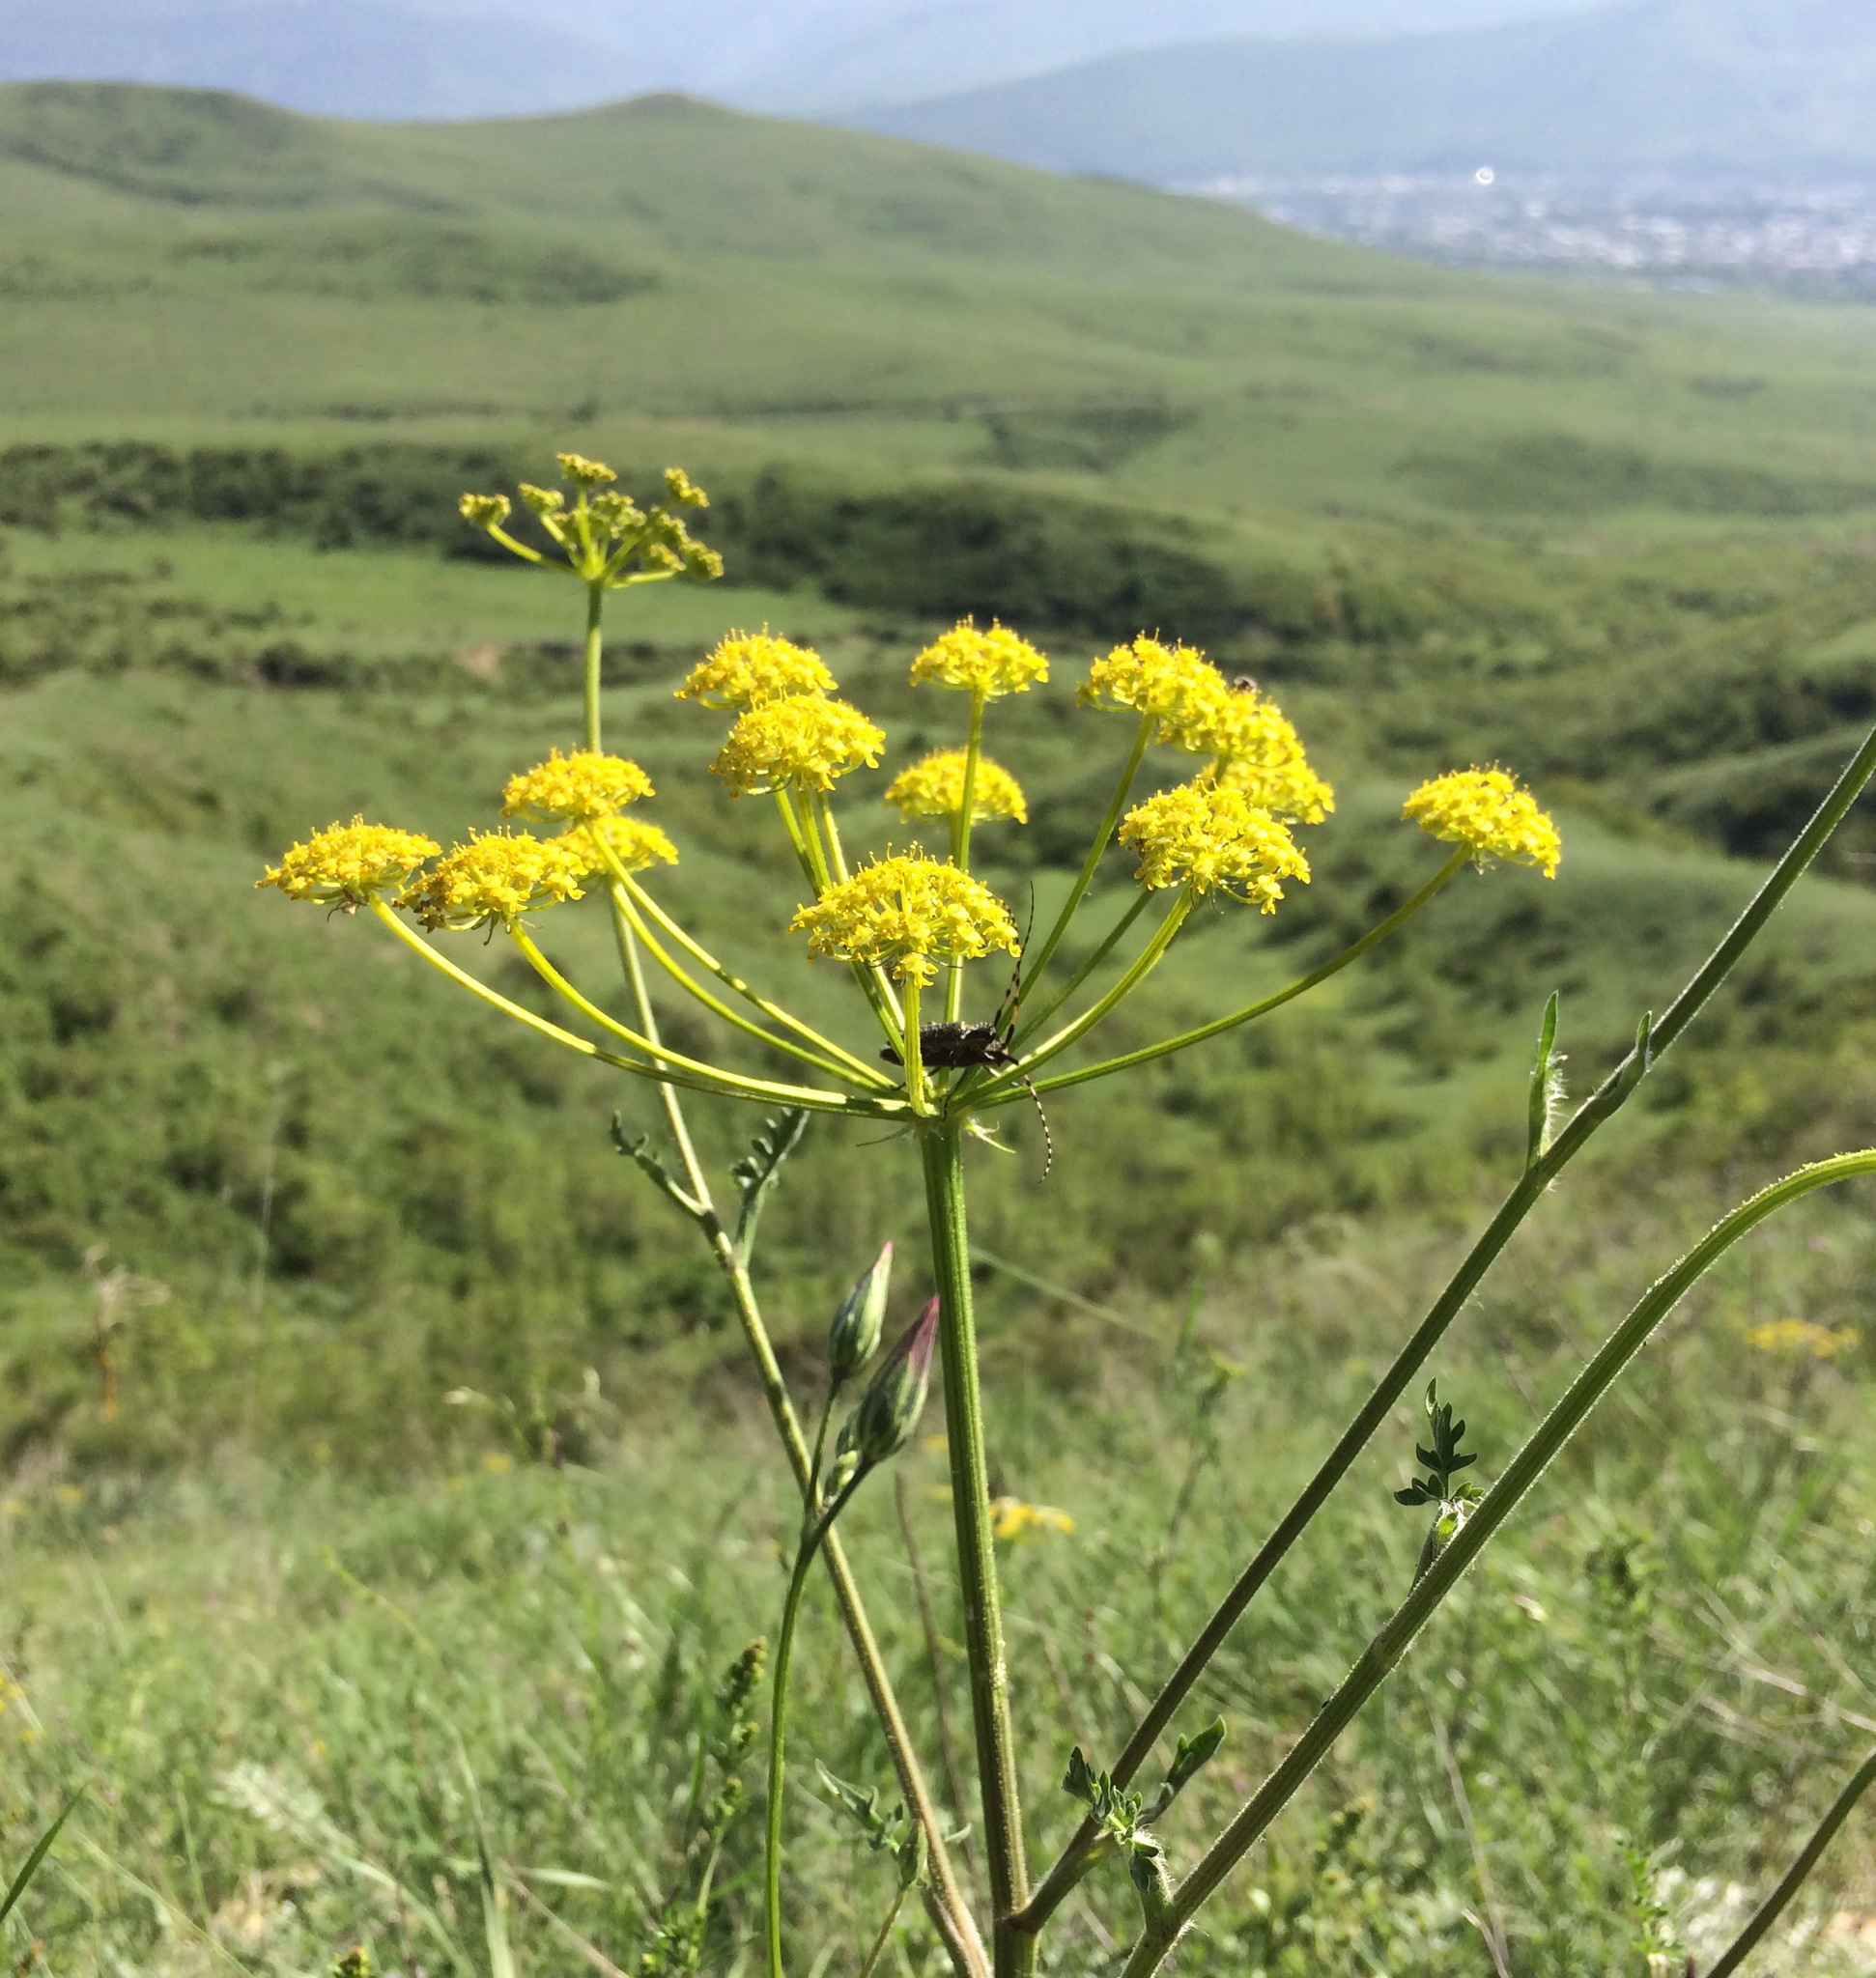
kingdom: Animalia
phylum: Arthropoda
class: Insecta
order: Coleoptera
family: Cerambycidae
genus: Agapanthia
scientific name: Agapanthia dahlii
